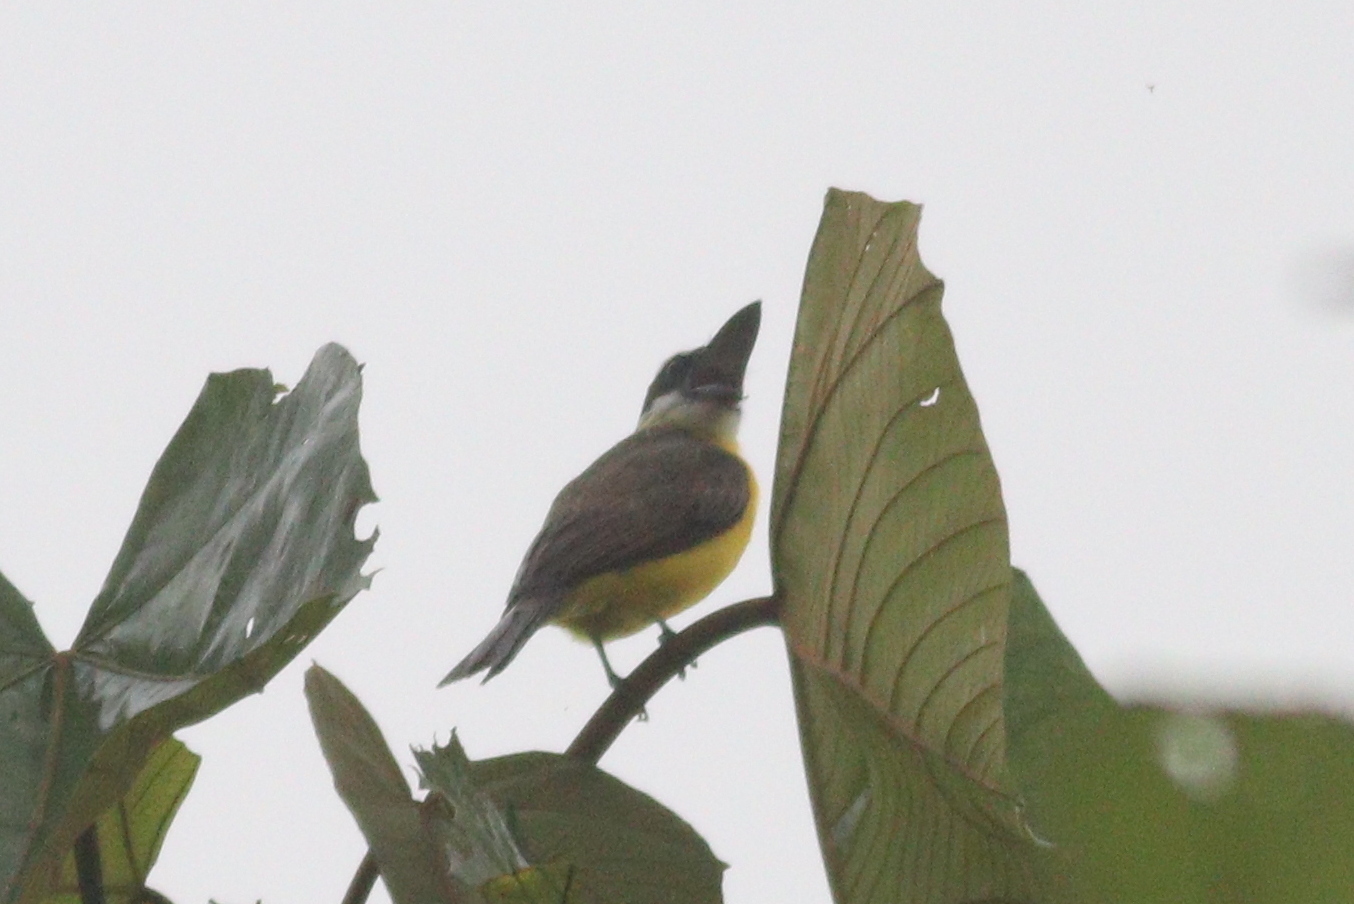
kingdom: Animalia
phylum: Chordata
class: Aves
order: Passeriformes
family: Tyrannidae
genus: Megarynchus
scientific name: Megarynchus pitangua
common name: Boat-billed flycatcher
